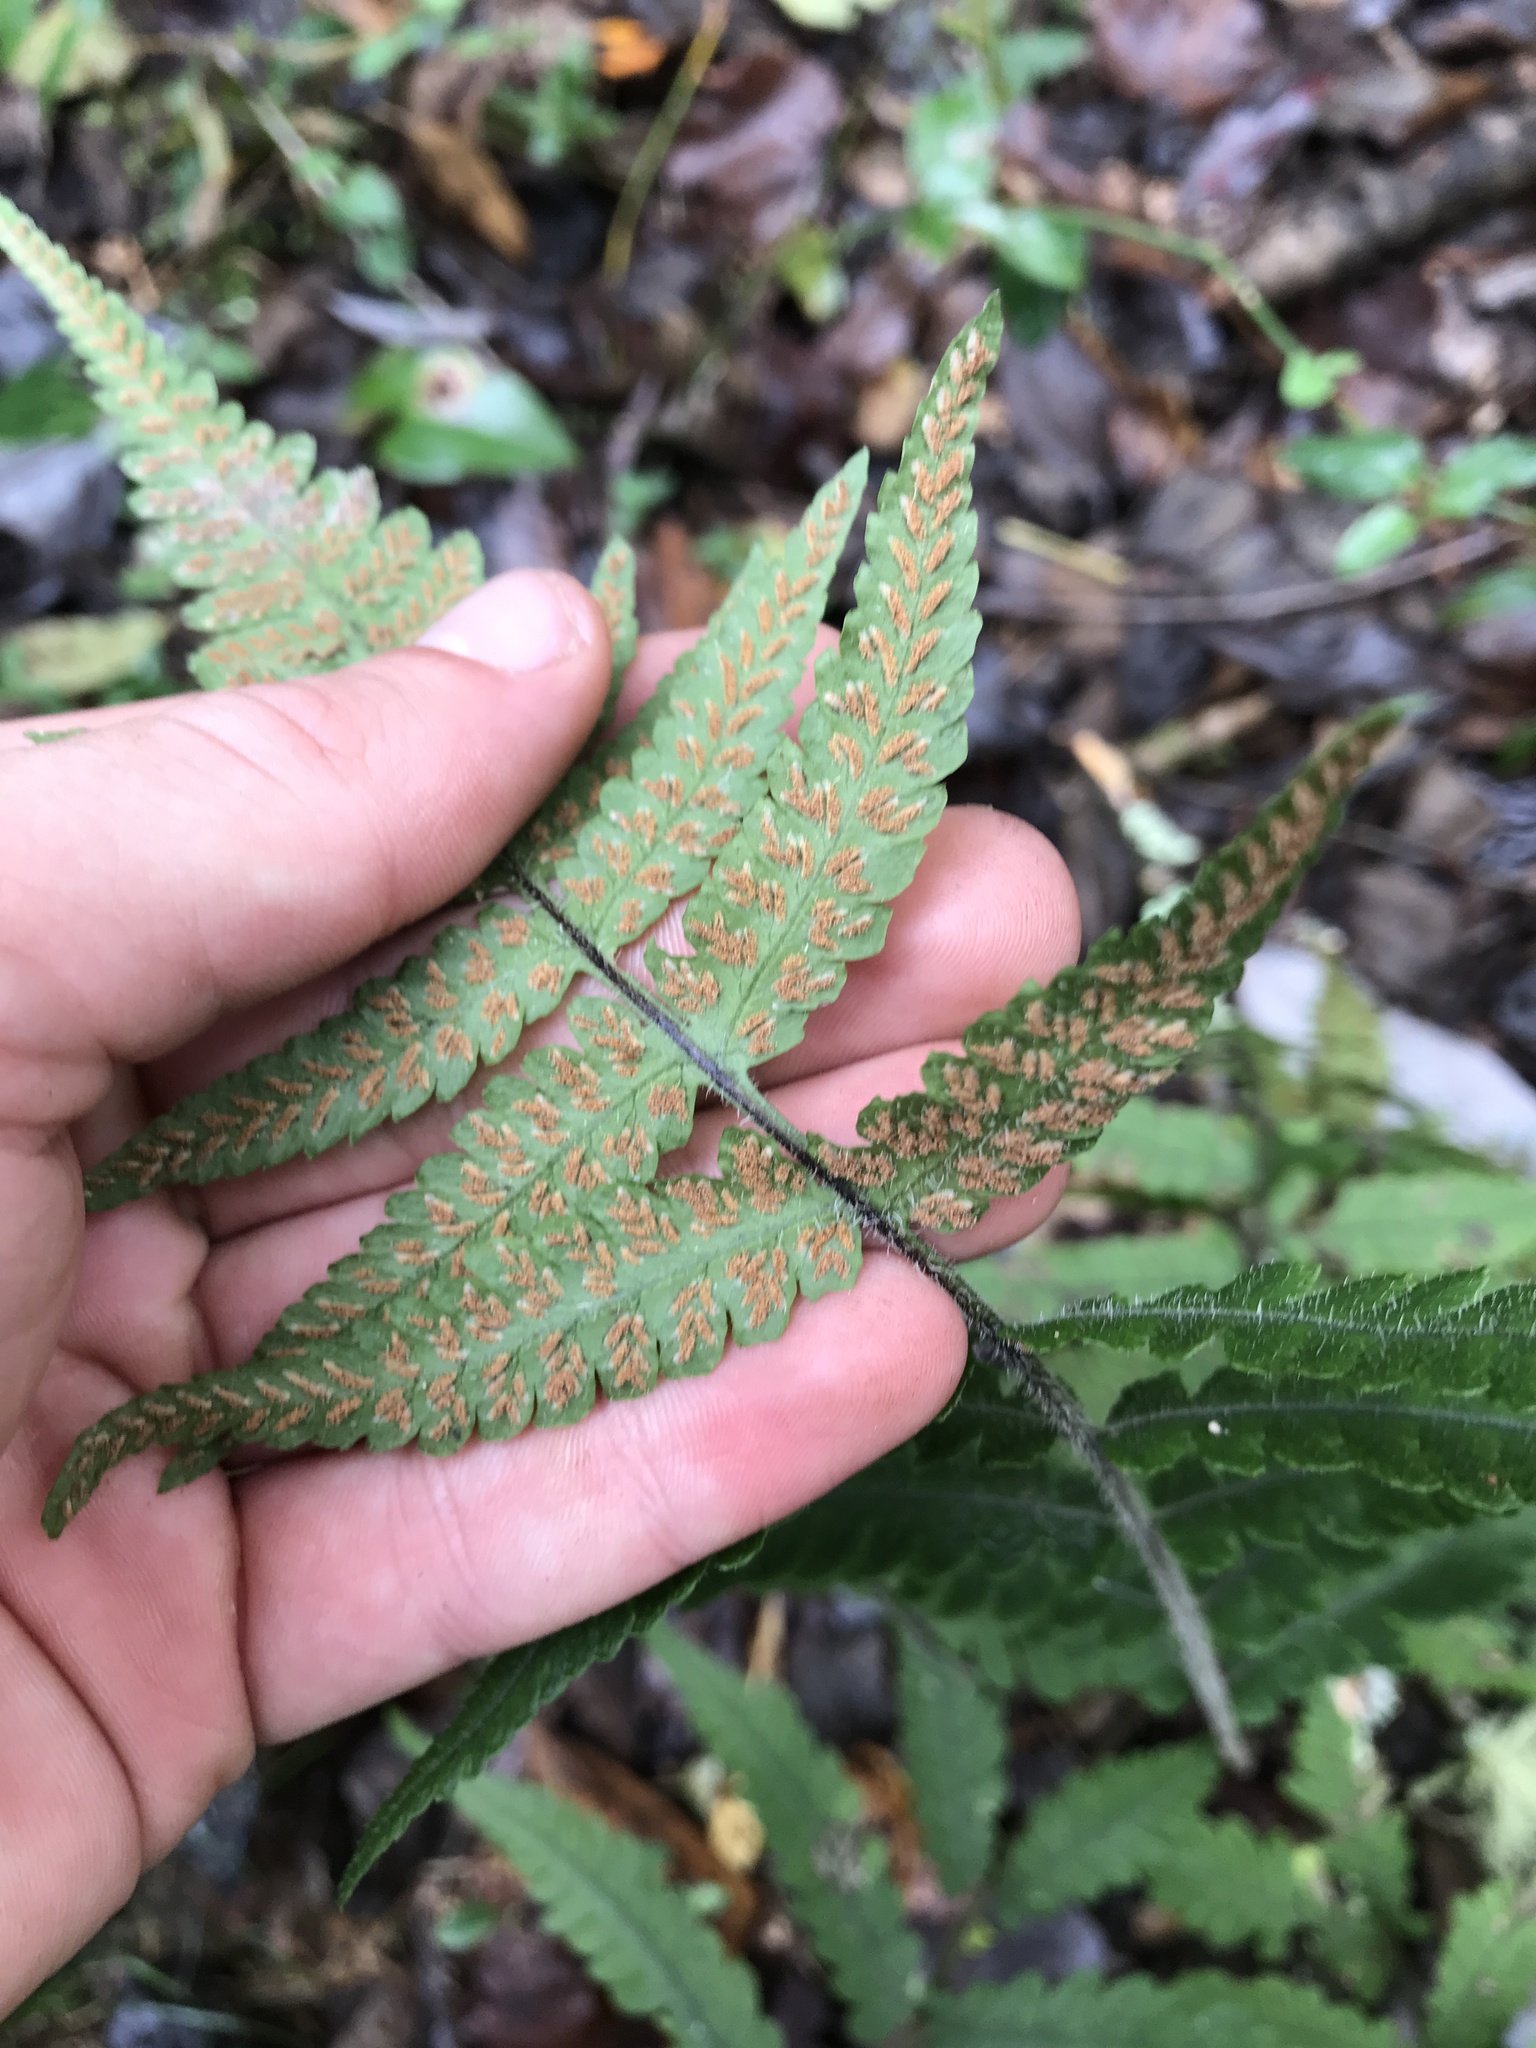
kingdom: Plantae
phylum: Tracheophyta
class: Polypodiopsida
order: Polypodiales
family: Athyriaceae
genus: Deparia
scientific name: Deparia petersenii
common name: Japanese false spleenwort
